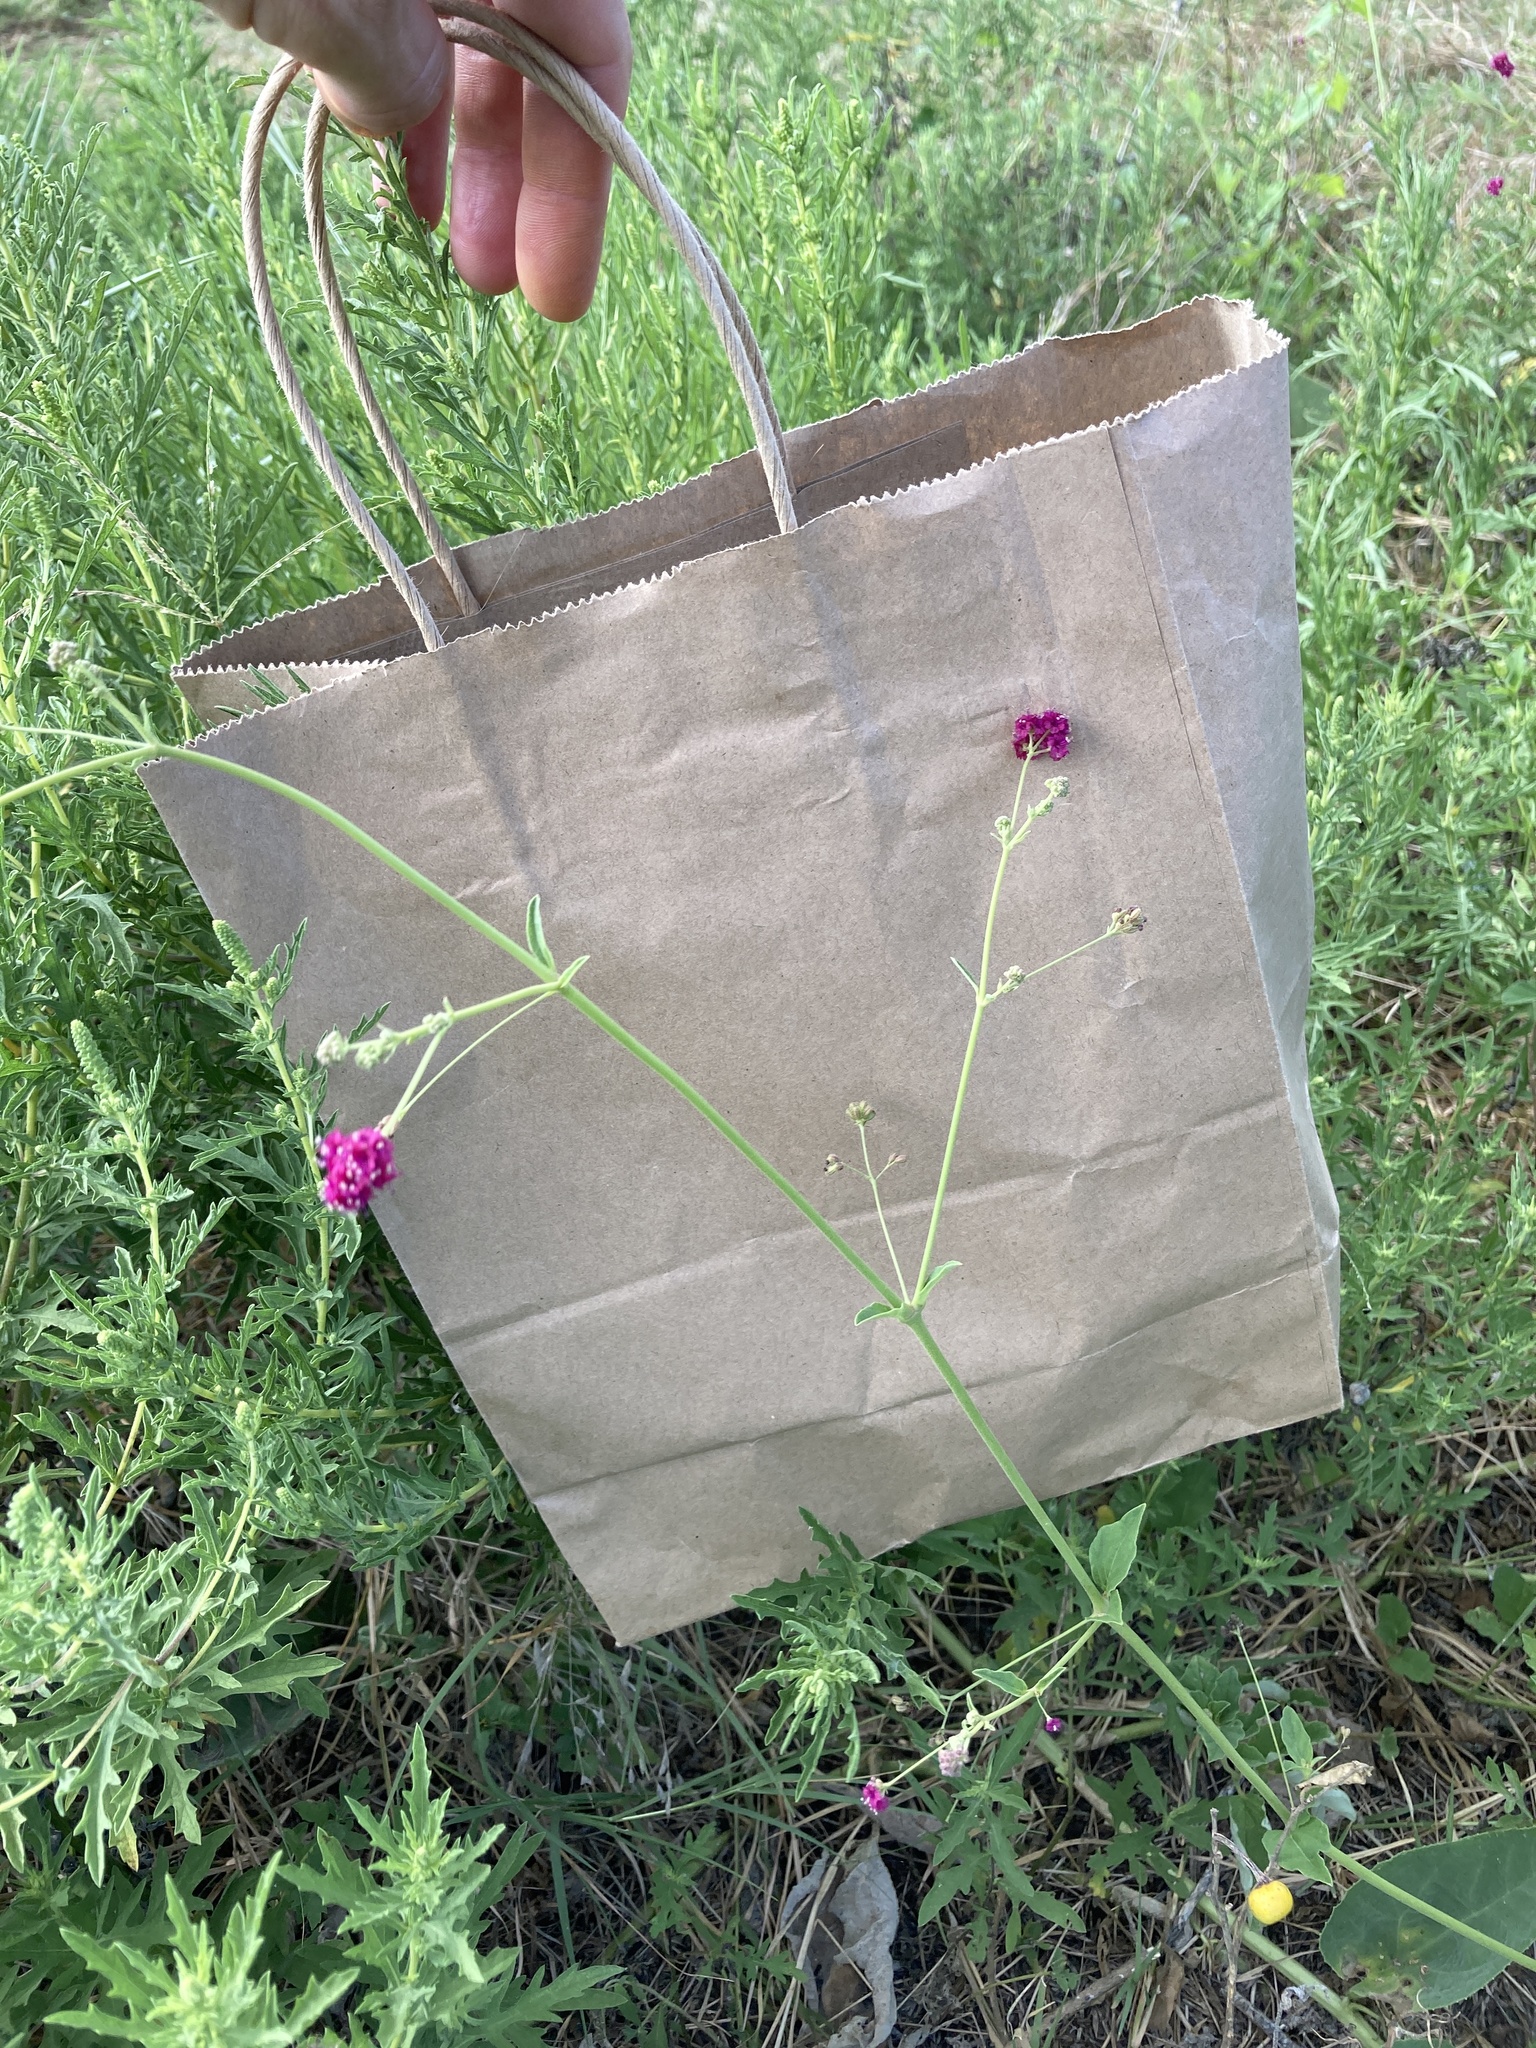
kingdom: Plantae
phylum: Tracheophyta
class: Magnoliopsida
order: Caryophyllales
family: Nyctaginaceae
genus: Boerhavia
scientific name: Boerhavia coccinea
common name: Scarlet spiderling
